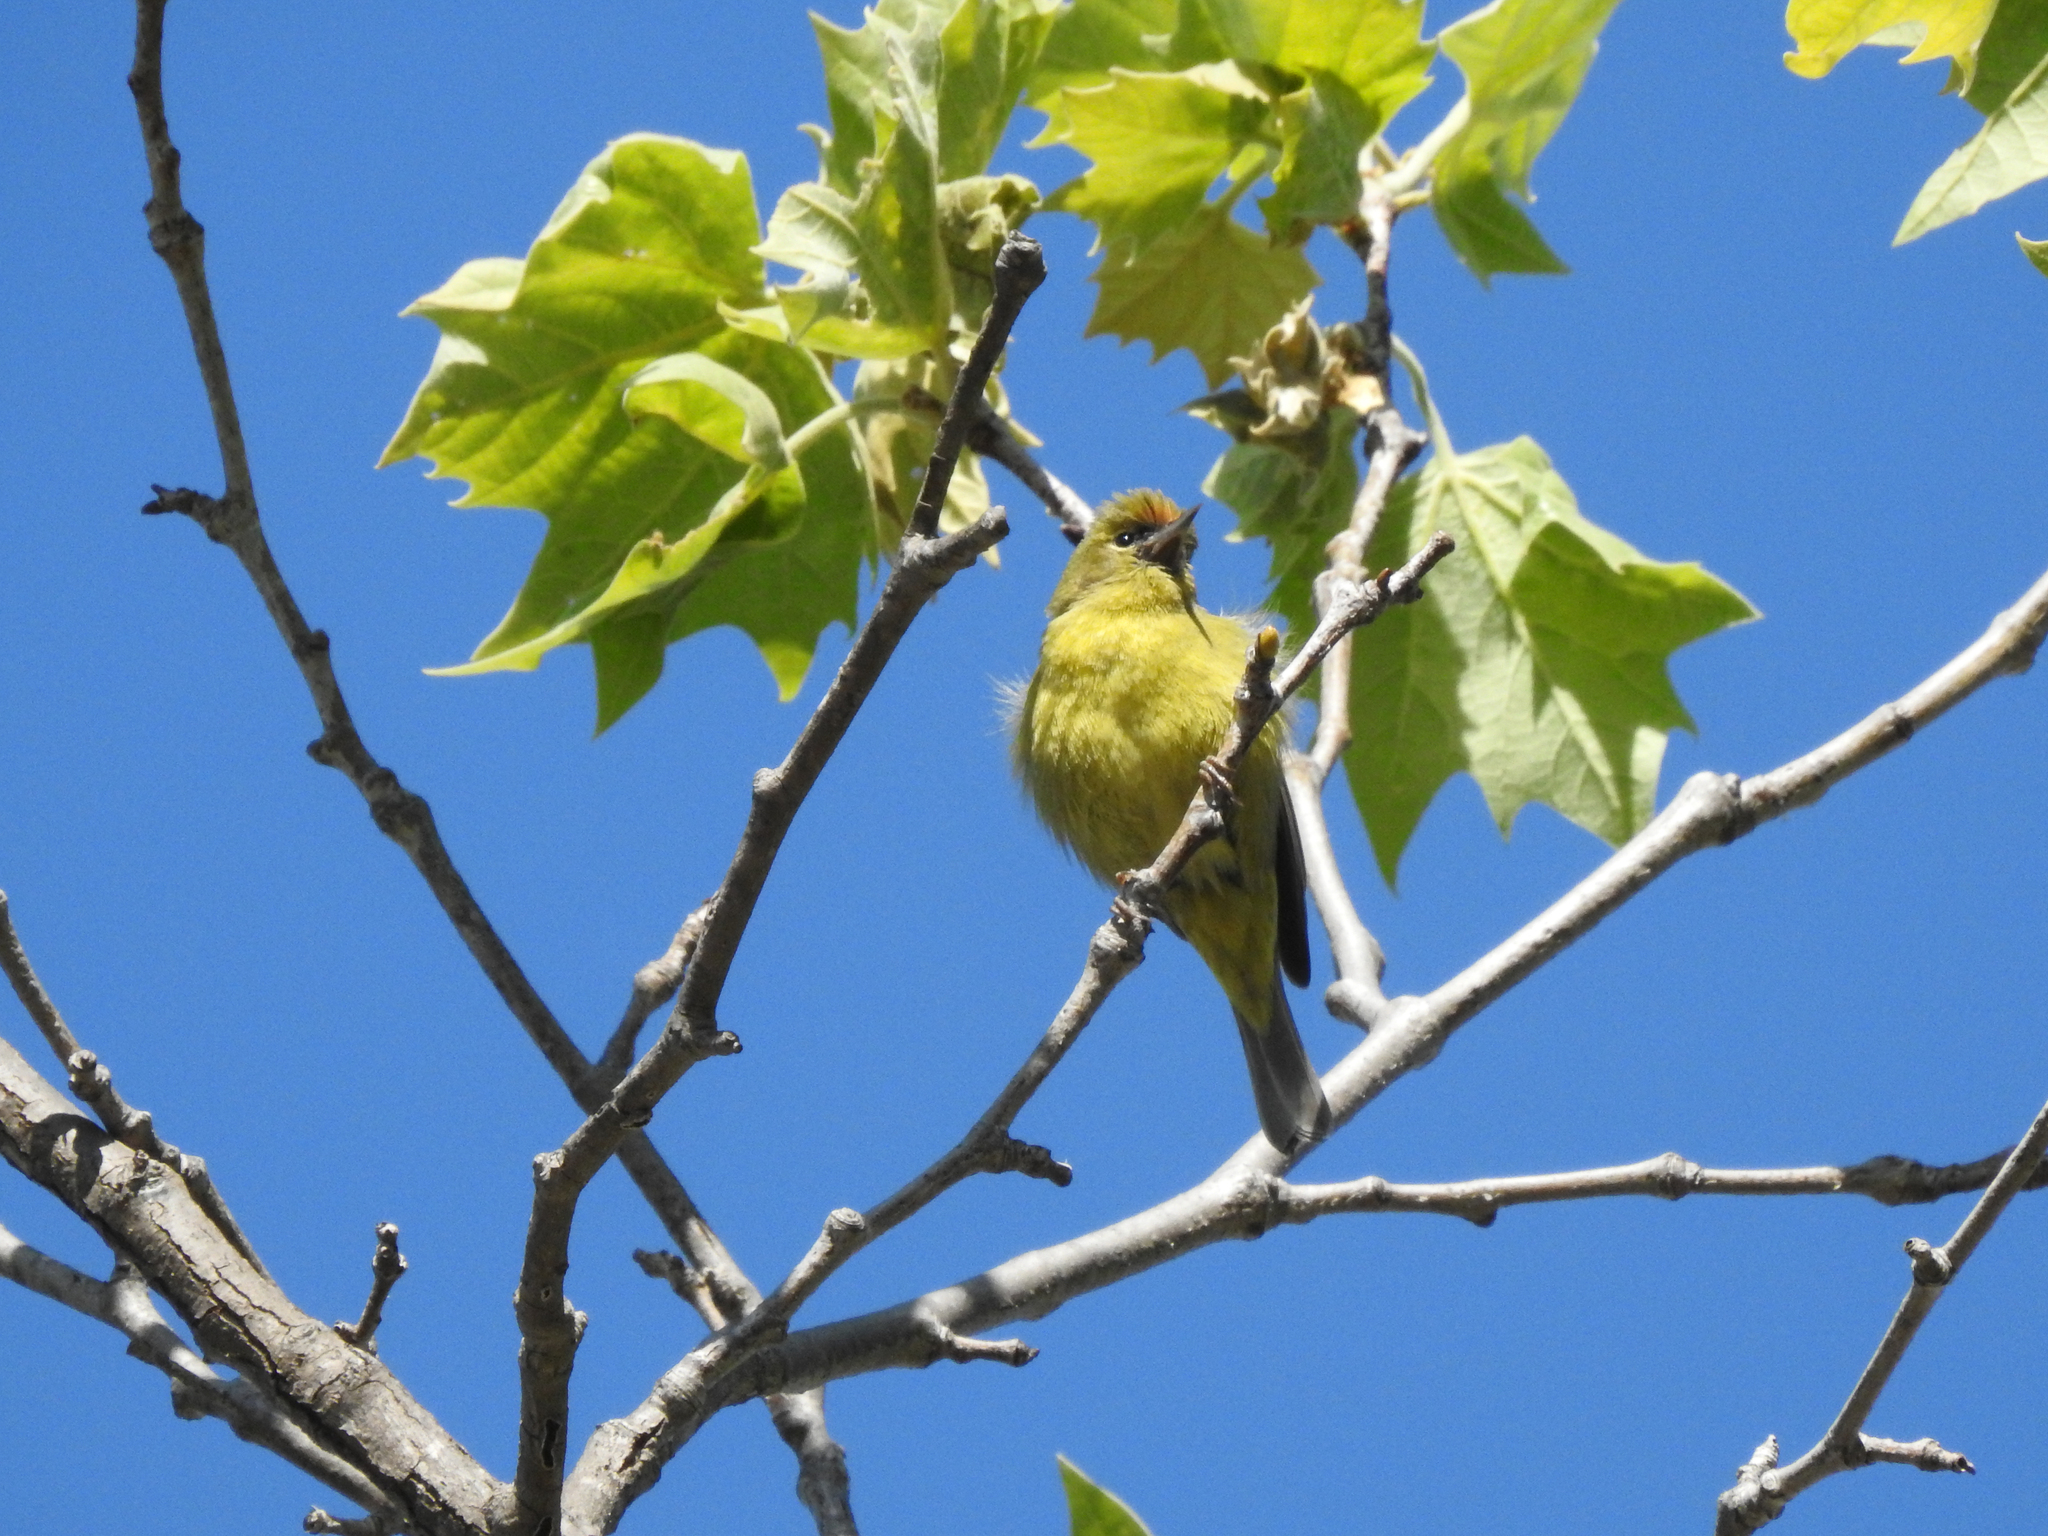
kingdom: Animalia
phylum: Chordata
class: Aves
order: Passeriformes
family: Parulidae
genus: Leiothlypis
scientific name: Leiothlypis celata
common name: Orange-crowned warbler
